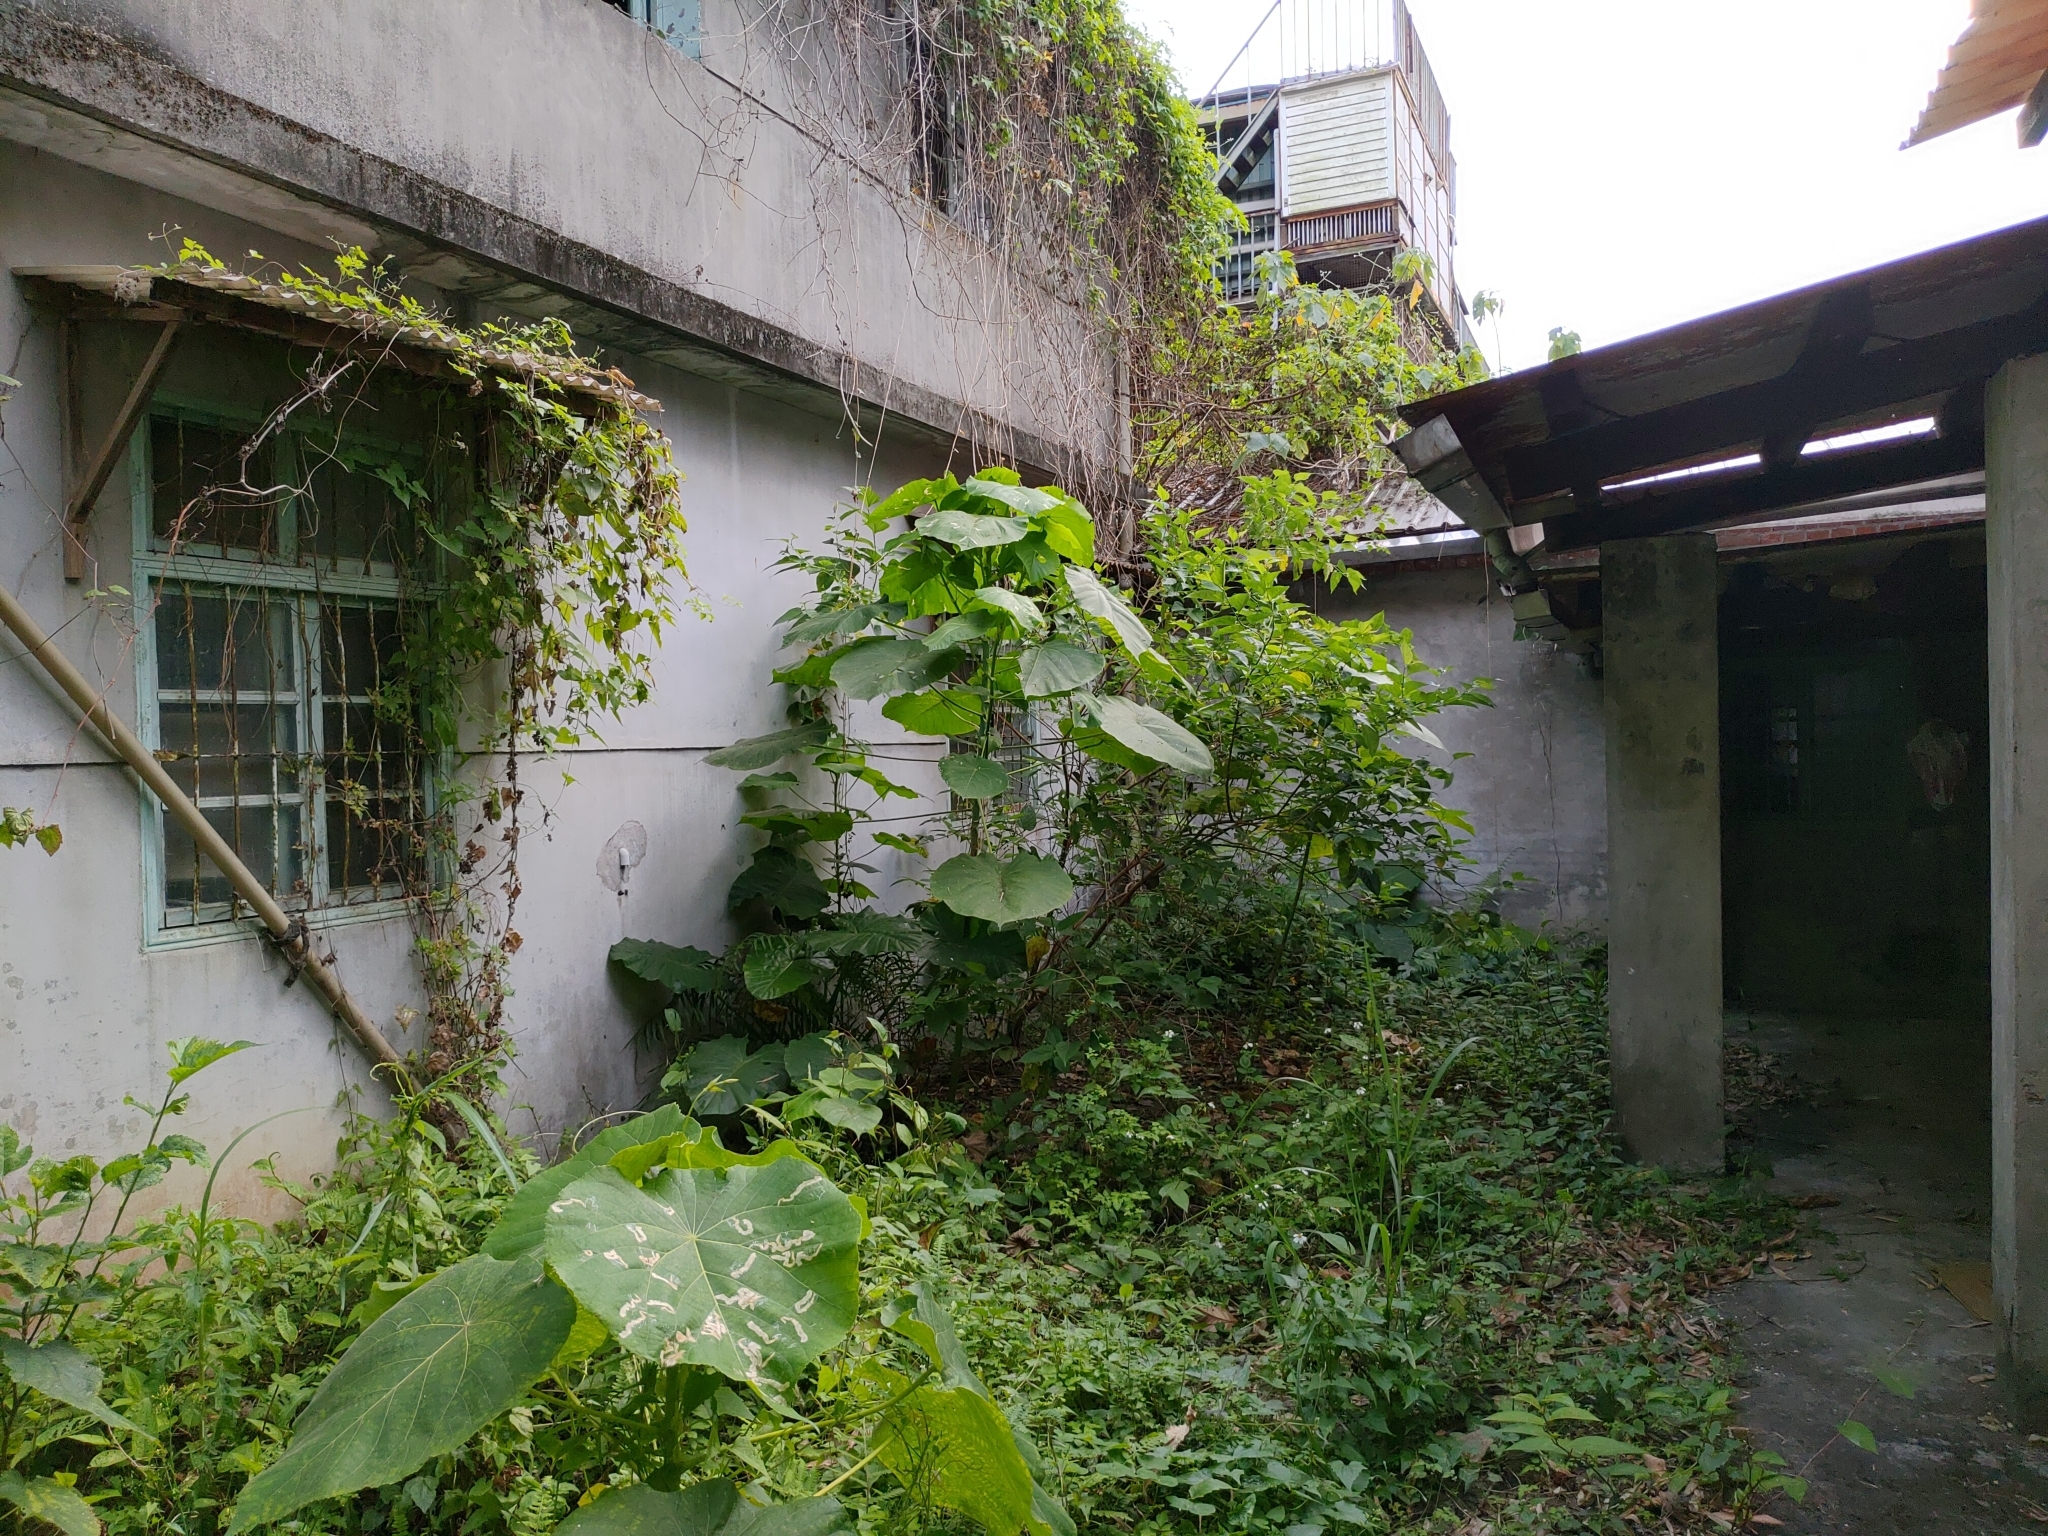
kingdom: Plantae
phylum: Tracheophyta
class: Magnoliopsida
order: Malpighiales
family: Euphorbiaceae
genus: Macaranga
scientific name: Macaranga tanarius
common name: Parasol leaf tree
